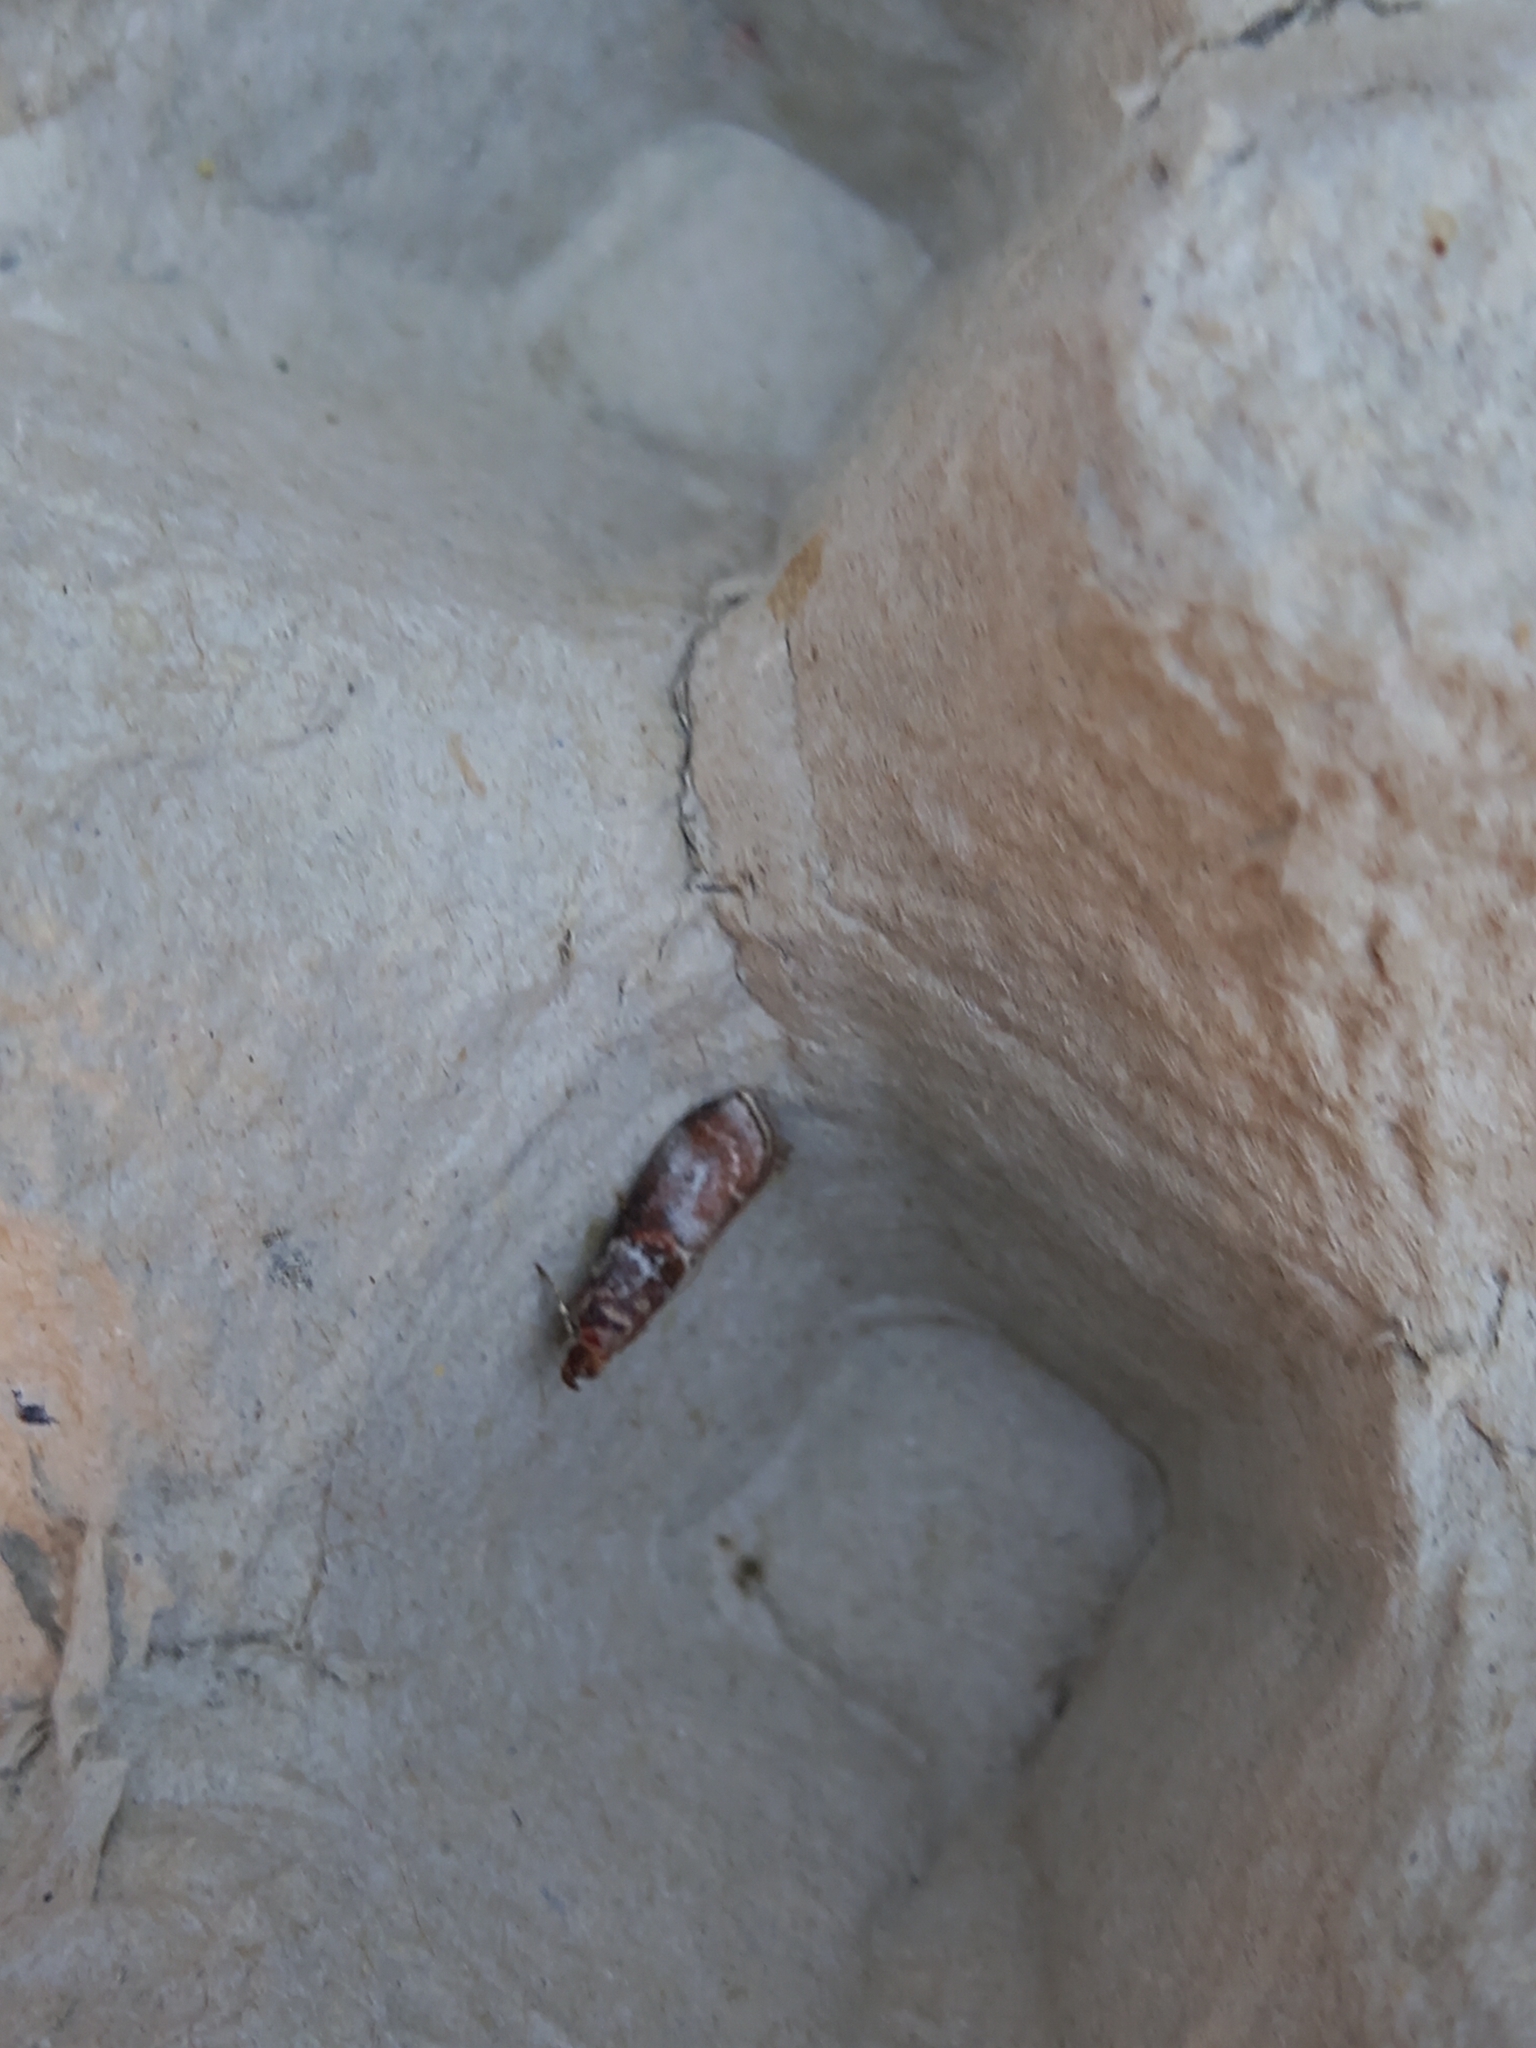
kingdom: Animalia
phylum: Arthropoda
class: Insecta
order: Lepidoptera
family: Pyralidae
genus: Acrobasis
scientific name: Acrobasis advenella
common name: Grey knot-horn
